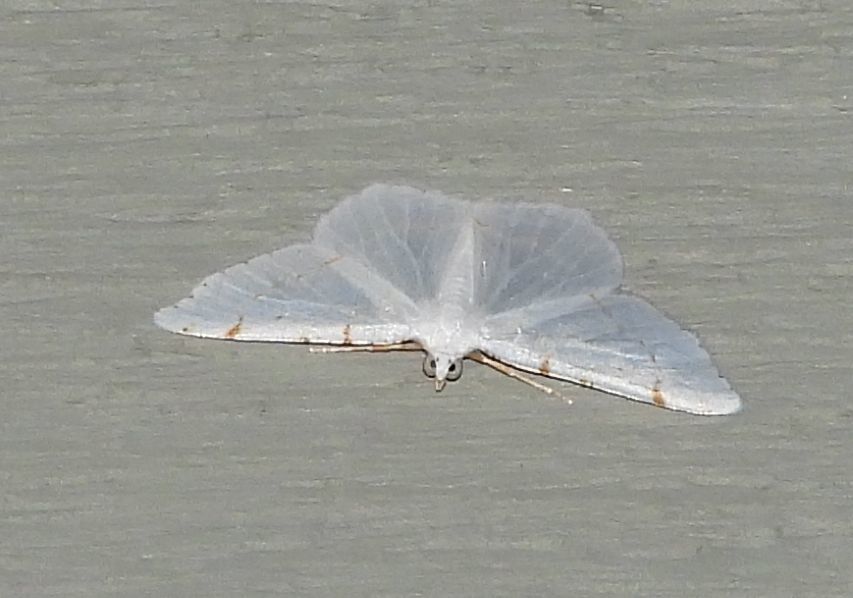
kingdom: Animalia
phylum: Arthropoda
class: Insecta
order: Lepidoptera
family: Geometridae
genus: Macaria
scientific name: Macaria pustularia
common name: Lesser maple spanworm moth
